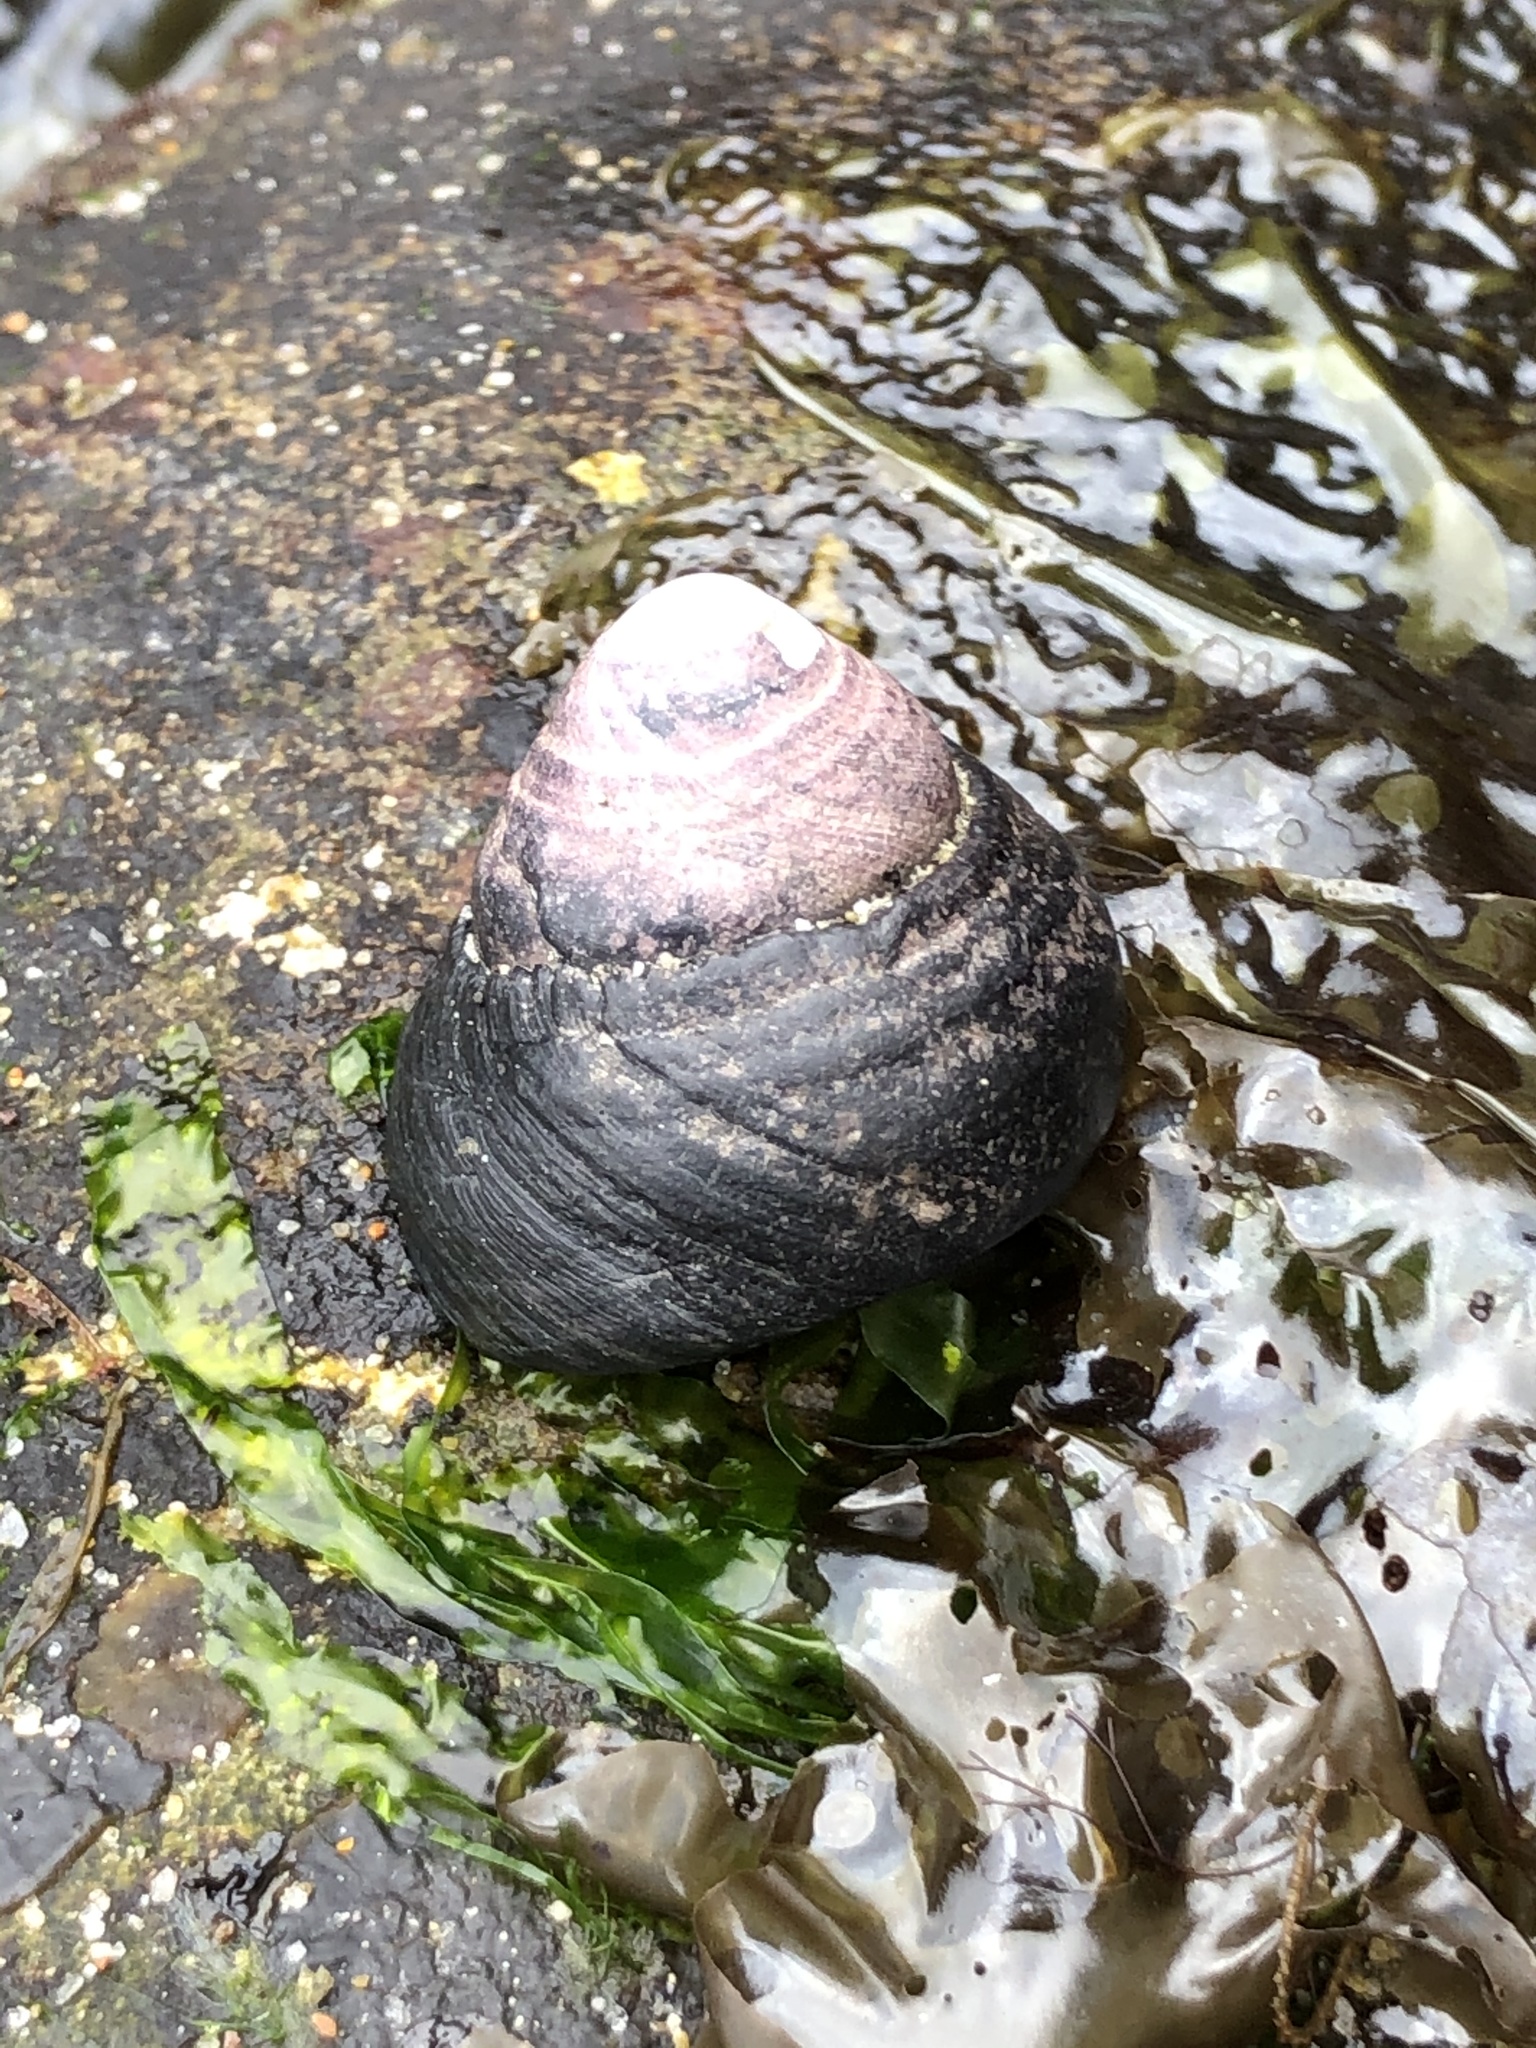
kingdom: Animalia
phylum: Mollusca
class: Gastropoda
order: Trochida
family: Tegulidae
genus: Tegula
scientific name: Tegula funebralis
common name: Black tegula
